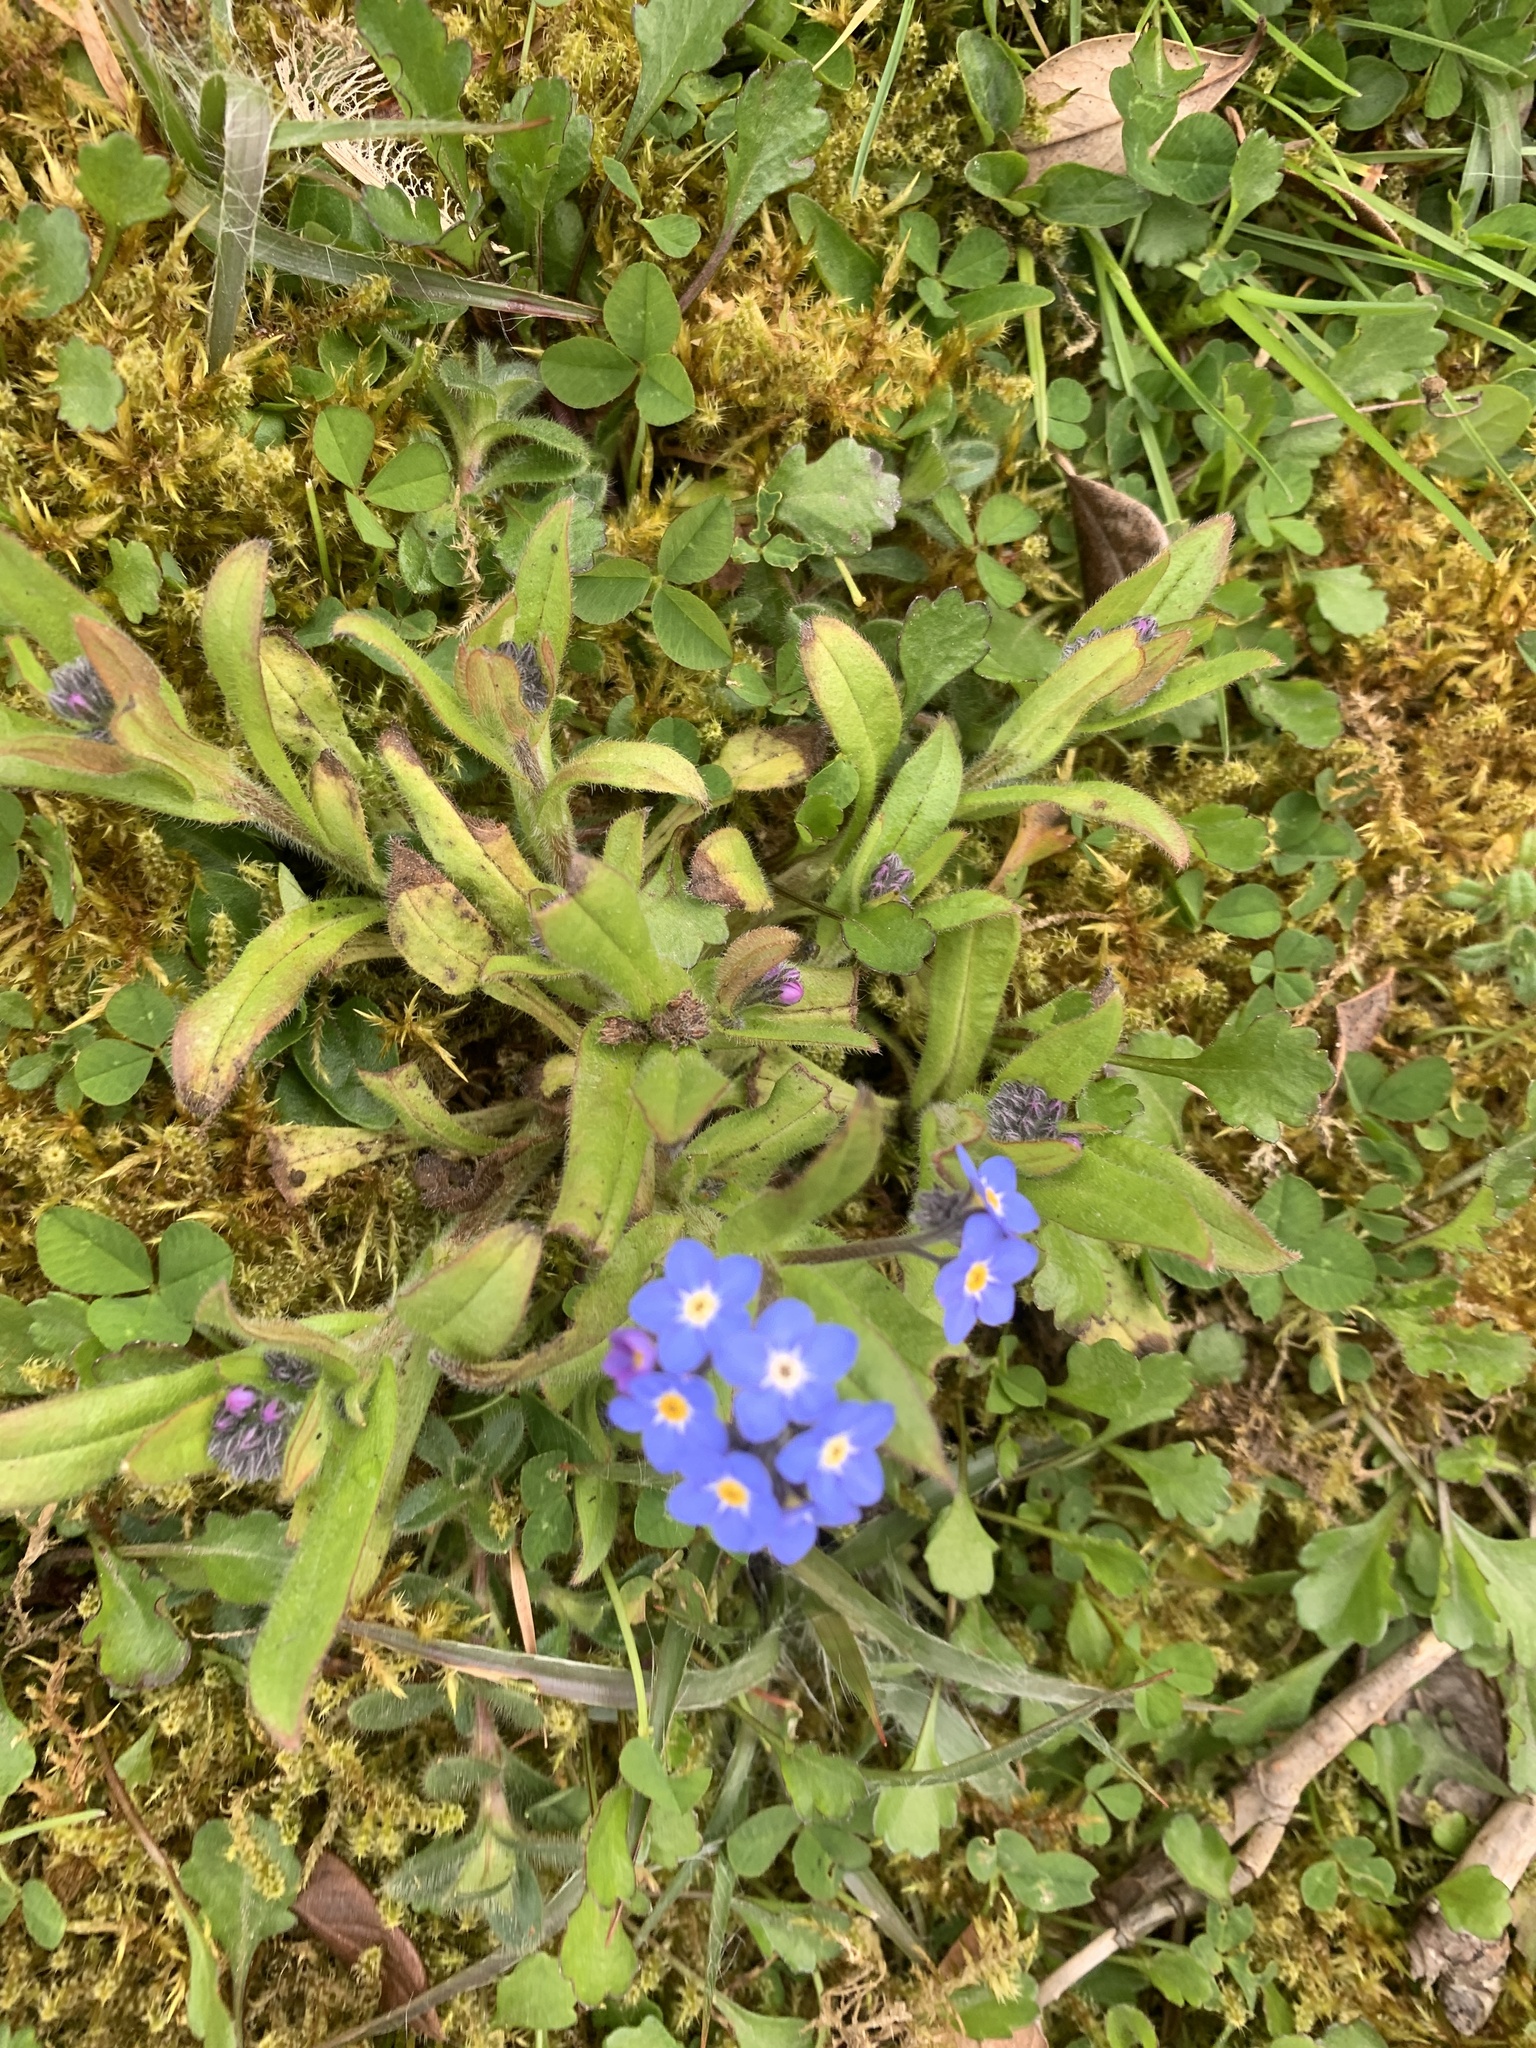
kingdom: Plantae
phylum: Tracheophyta
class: Magnoliopsida
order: Boraginales
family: Boraginaceae
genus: Myosotis
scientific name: Myosotis sylvatica
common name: Wood forget-me-not
